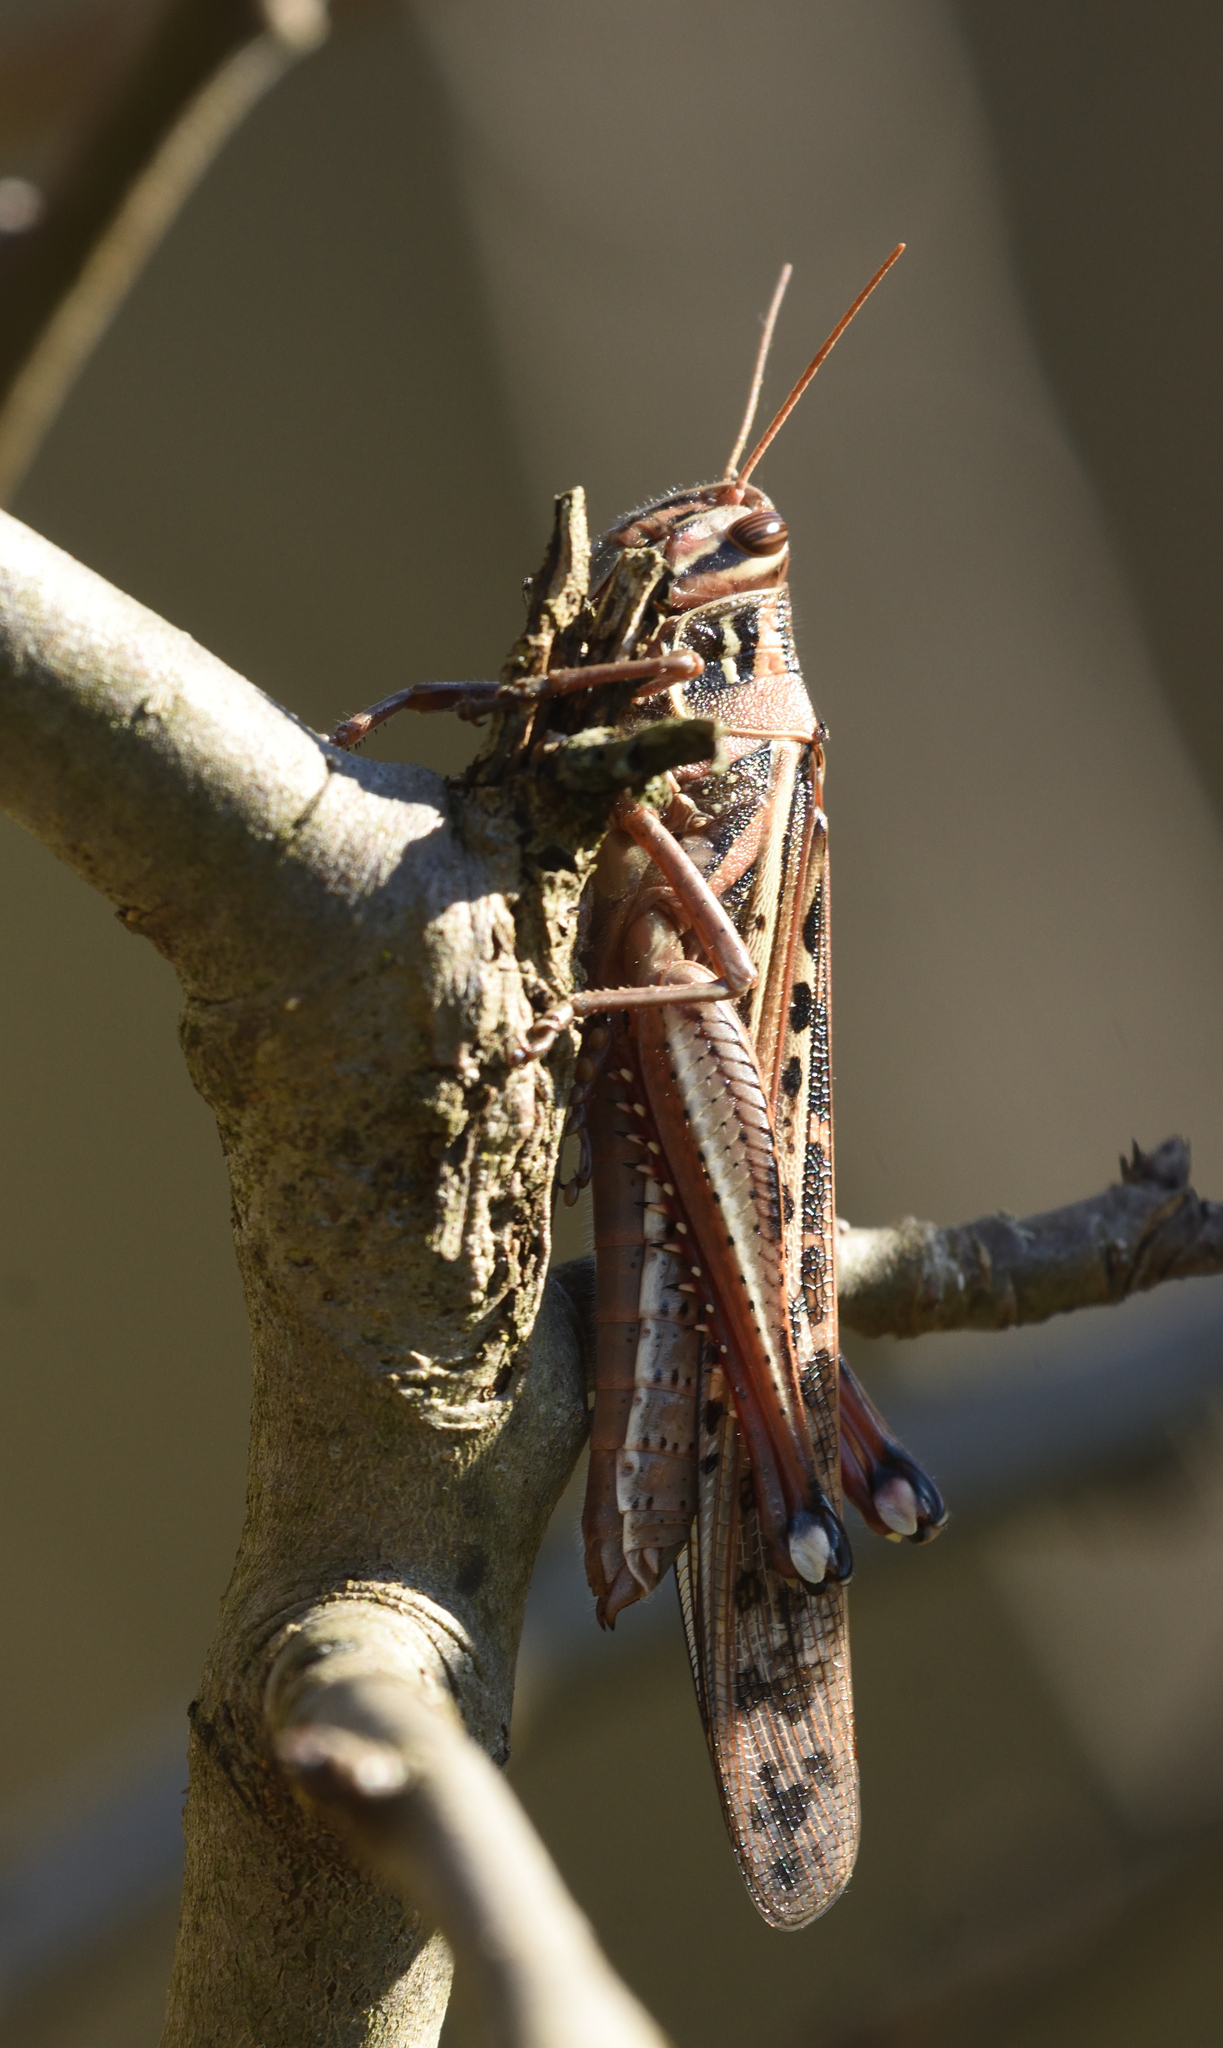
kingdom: Animalia
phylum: Arthropoda
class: Insecta
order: Orthoptera
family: Acrididae
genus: Schistocerca
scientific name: Schistocerca americana
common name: American bird locust
